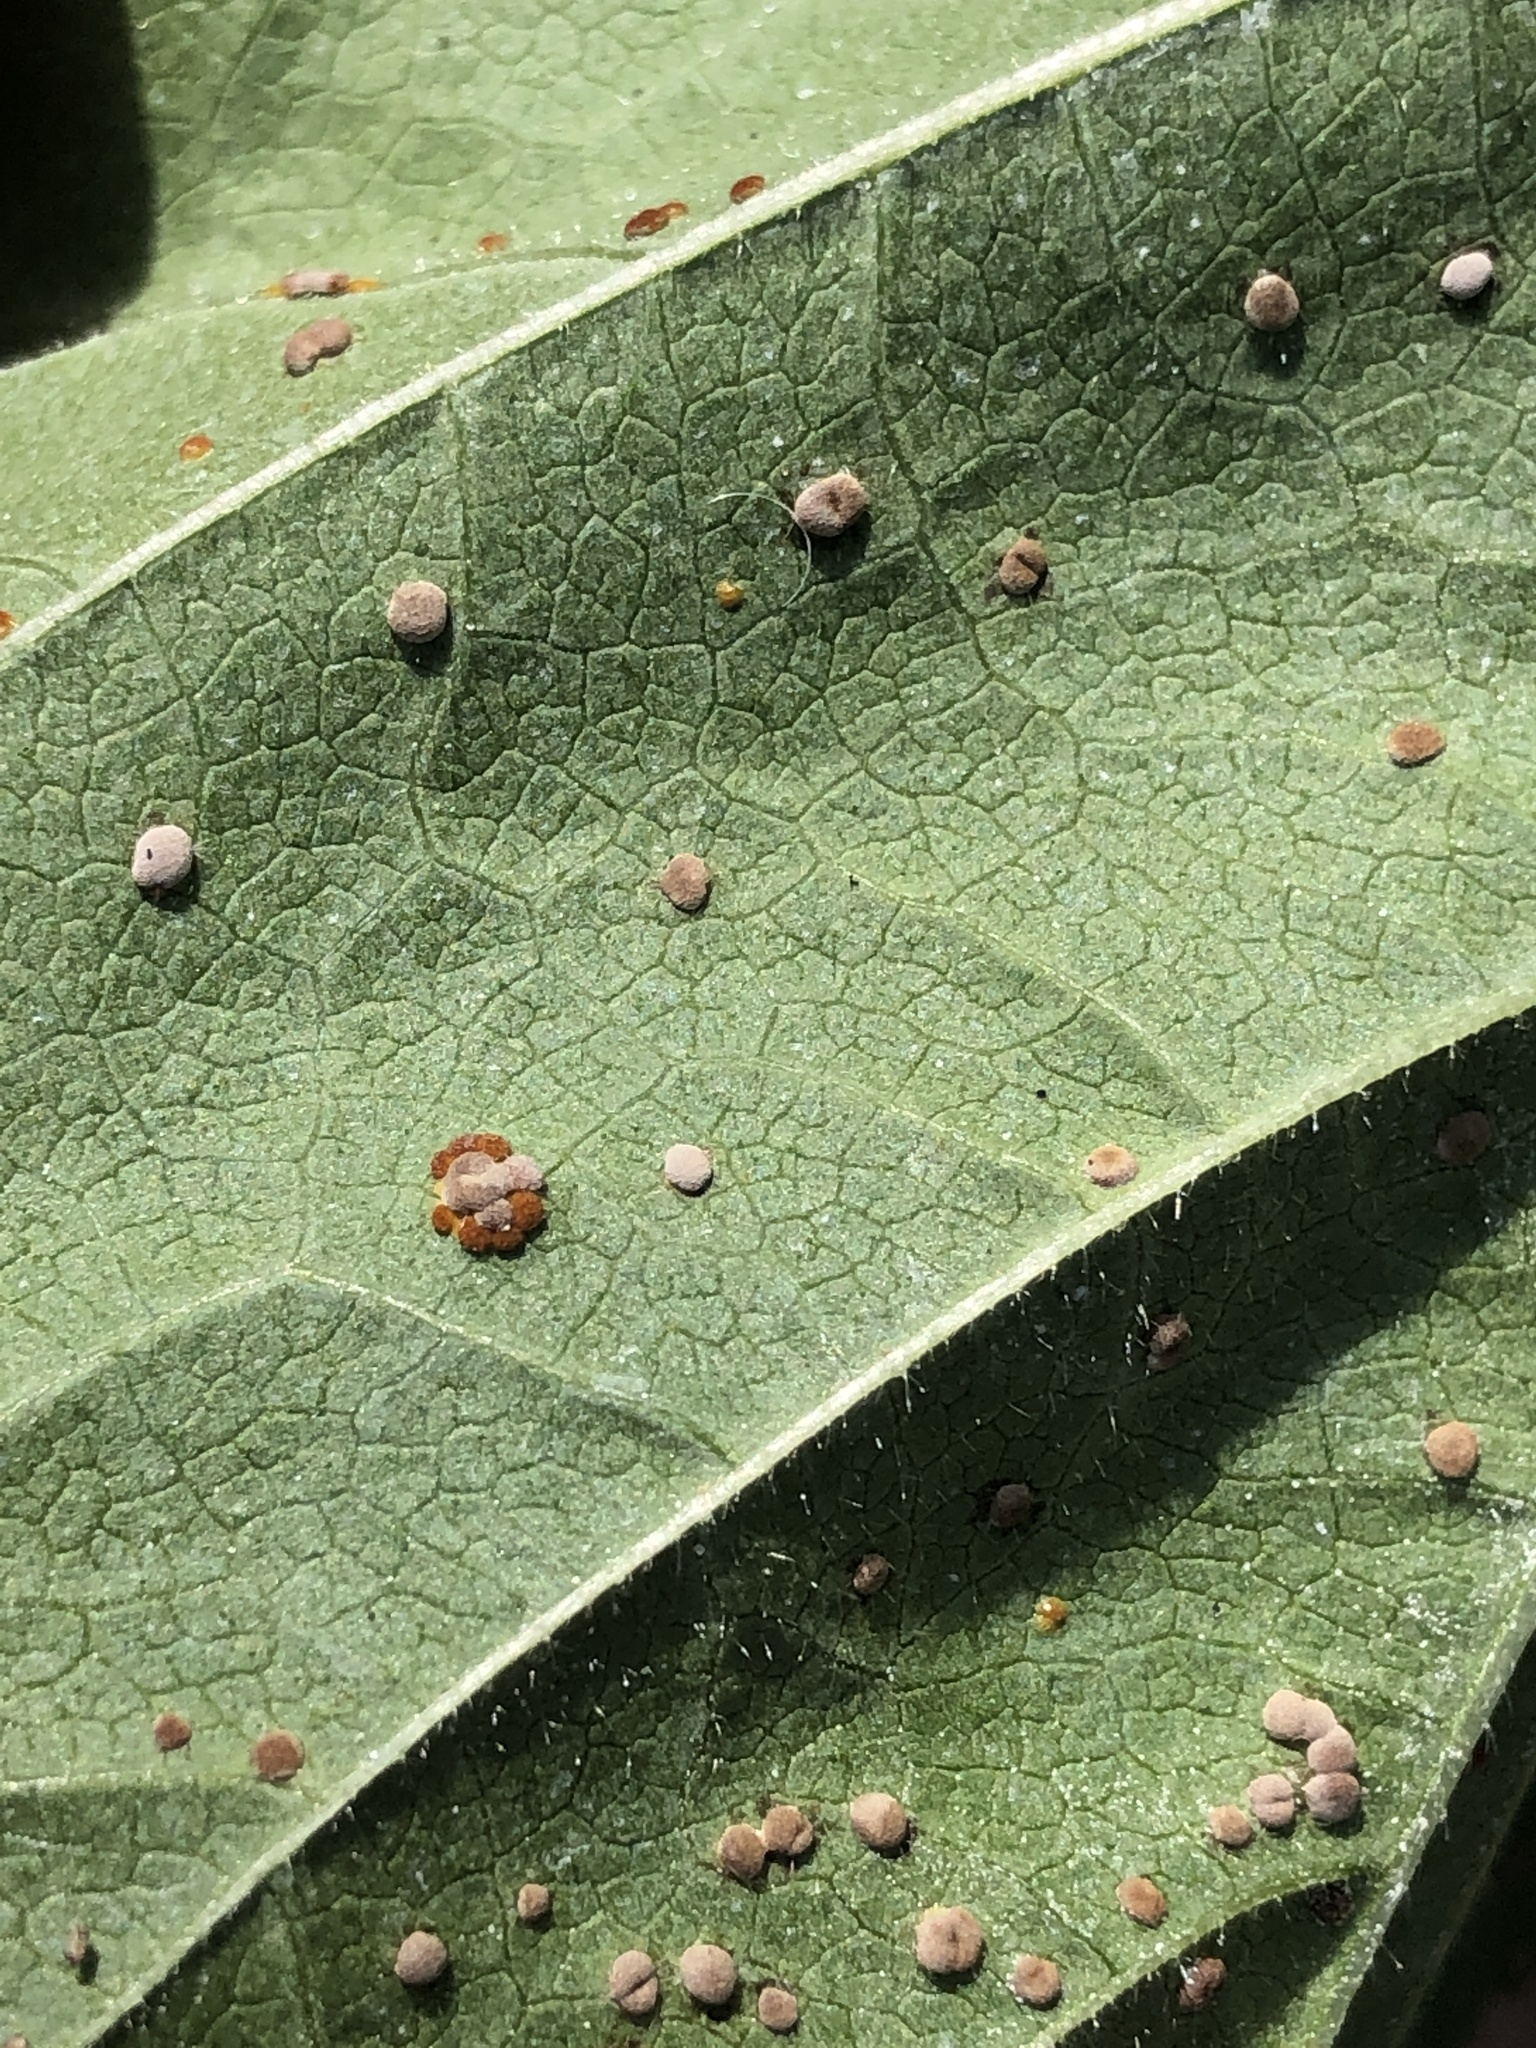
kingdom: Fungi
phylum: Basidiomycota
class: Pucciniomycetes
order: Pucciniales
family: Pucciniaceae
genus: Puccinia
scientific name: Puccinia malvacearum
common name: Hollyhock rust
